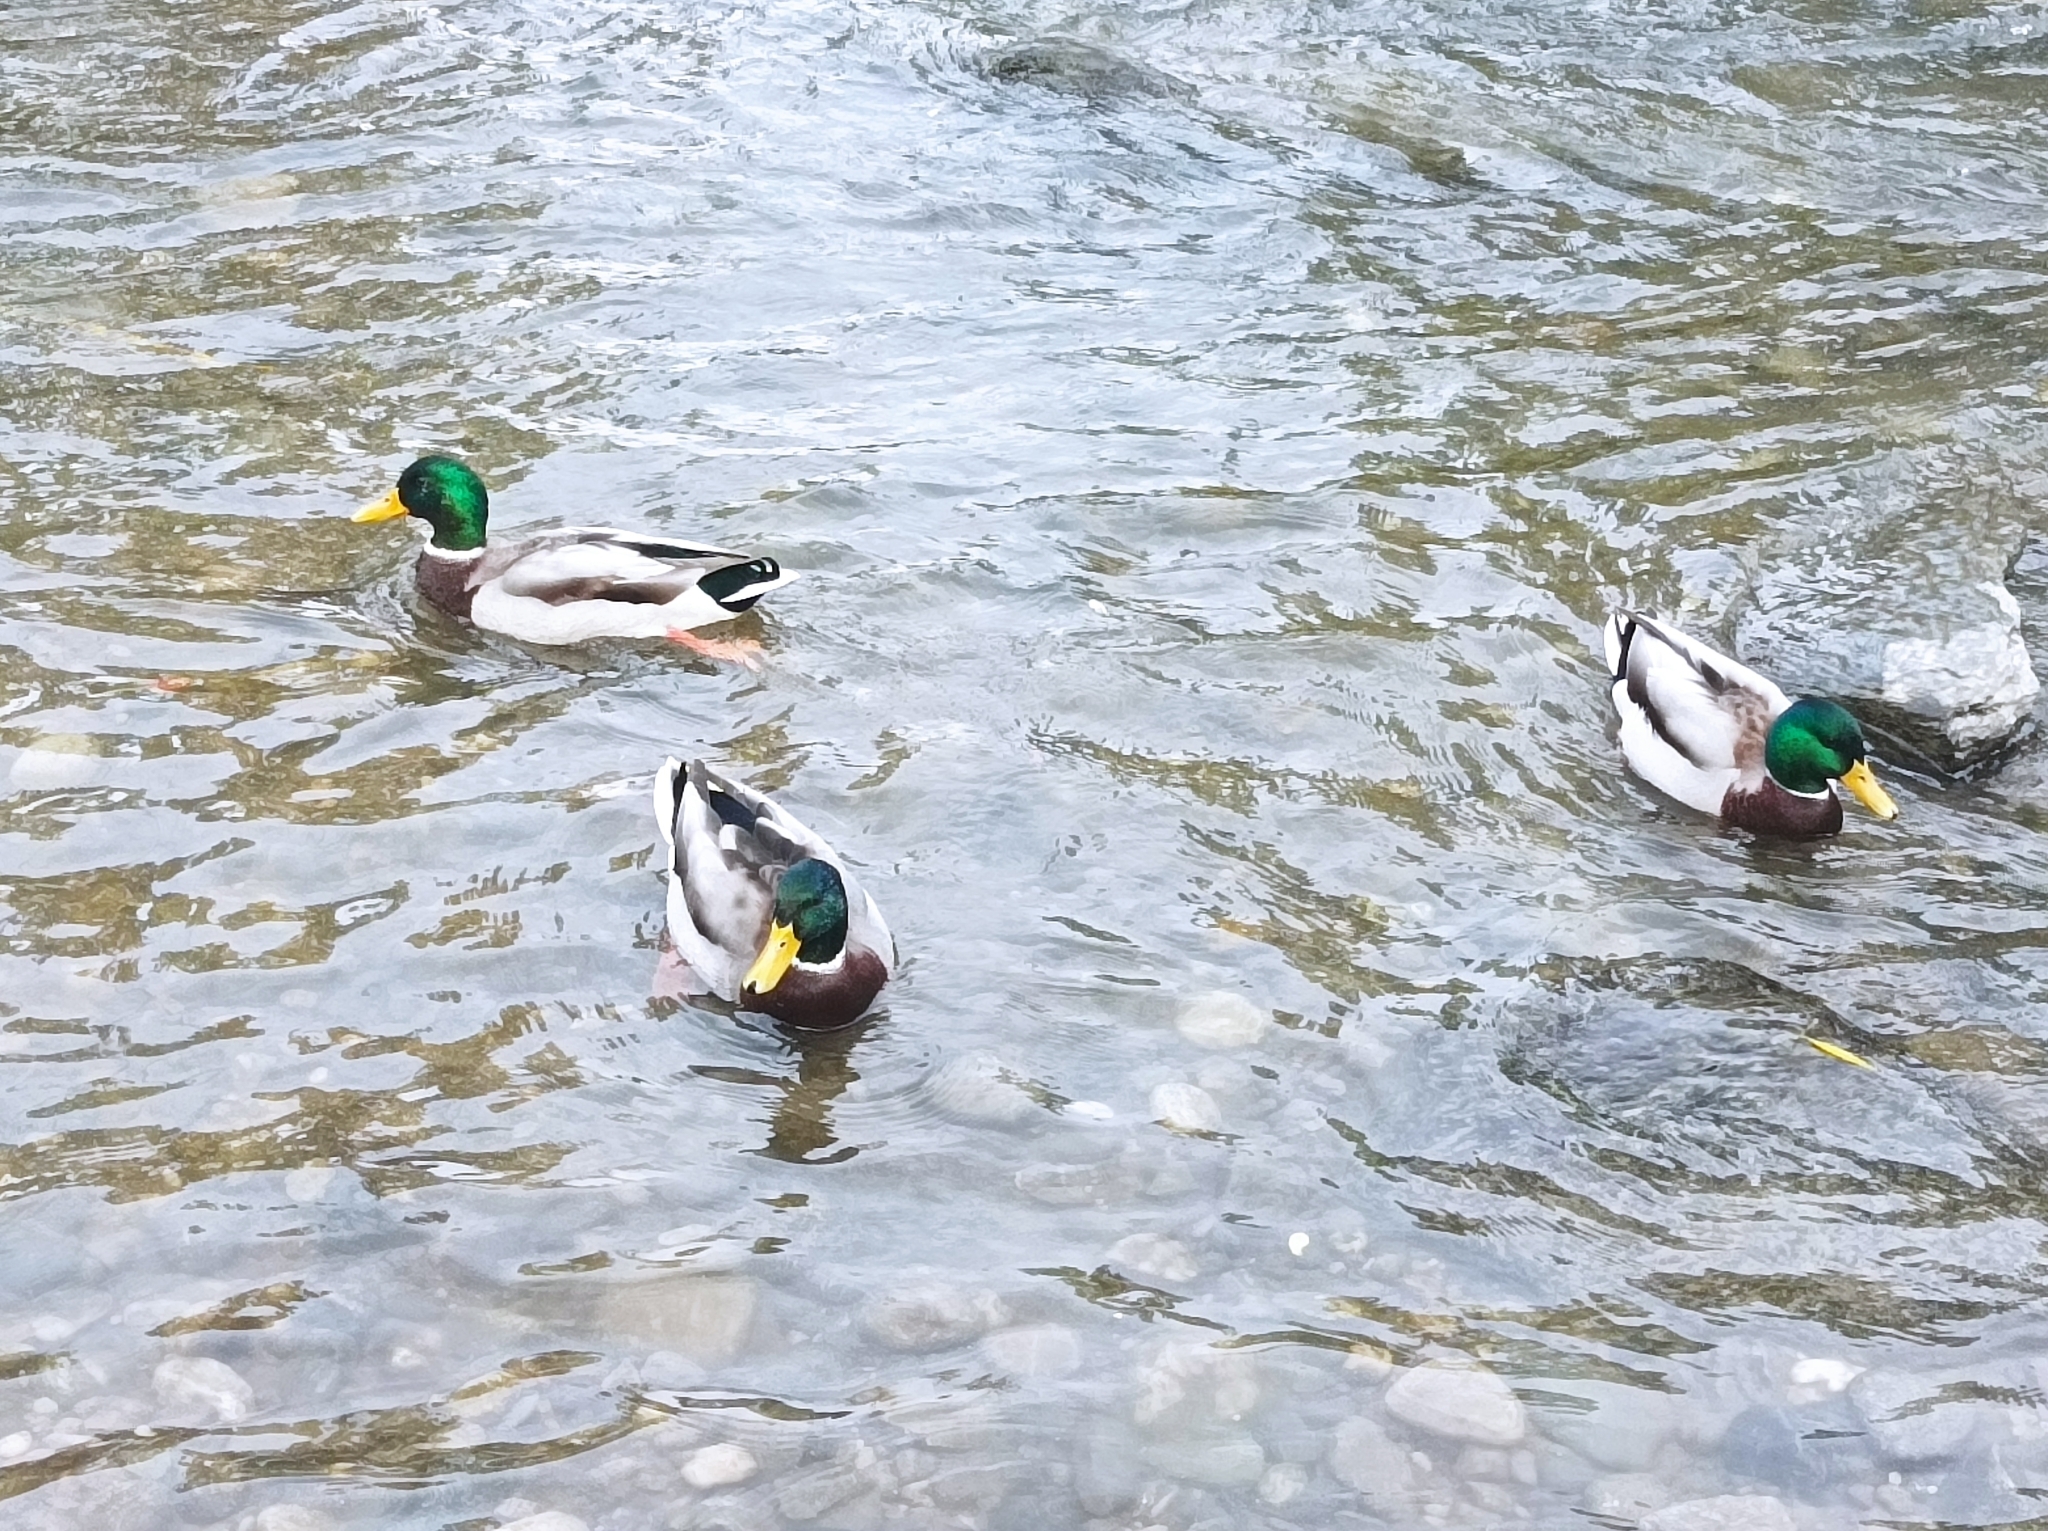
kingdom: Animalia
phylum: Chordata
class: Aves
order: Anseriformes
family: Anatidae
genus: Anas
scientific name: Anas platyrhynchos
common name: Mallard
